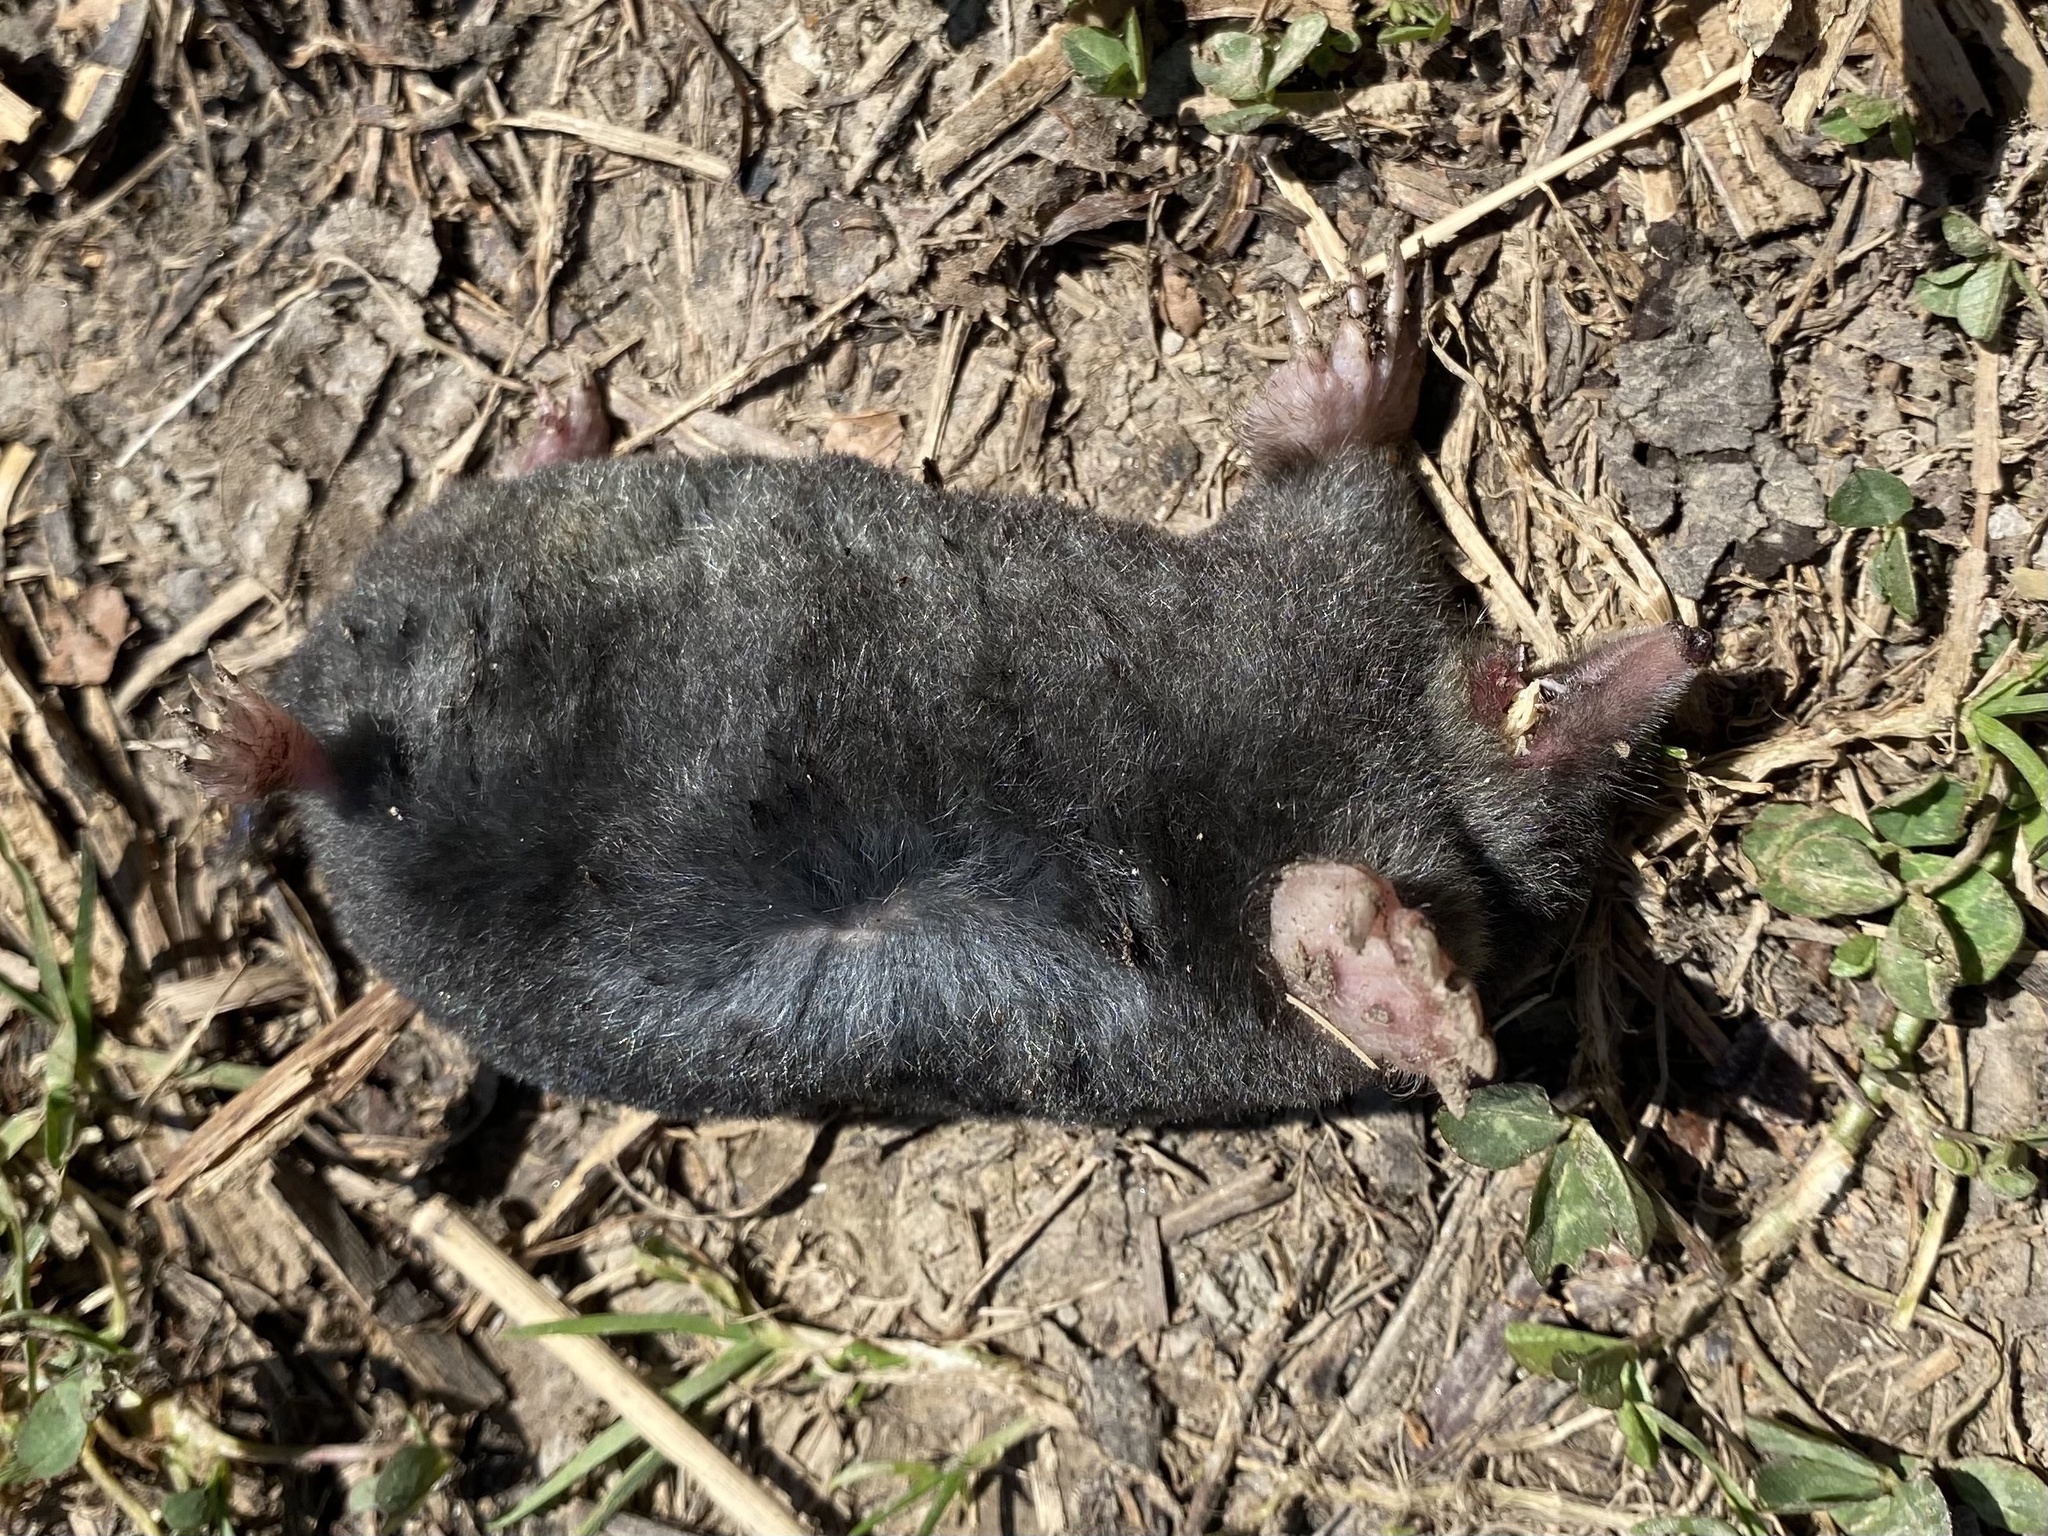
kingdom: Animalia
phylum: Chordata
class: Mammalia
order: Soricomorpha
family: Talpidae
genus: Talpa
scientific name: Talpa europaea
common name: European mole
